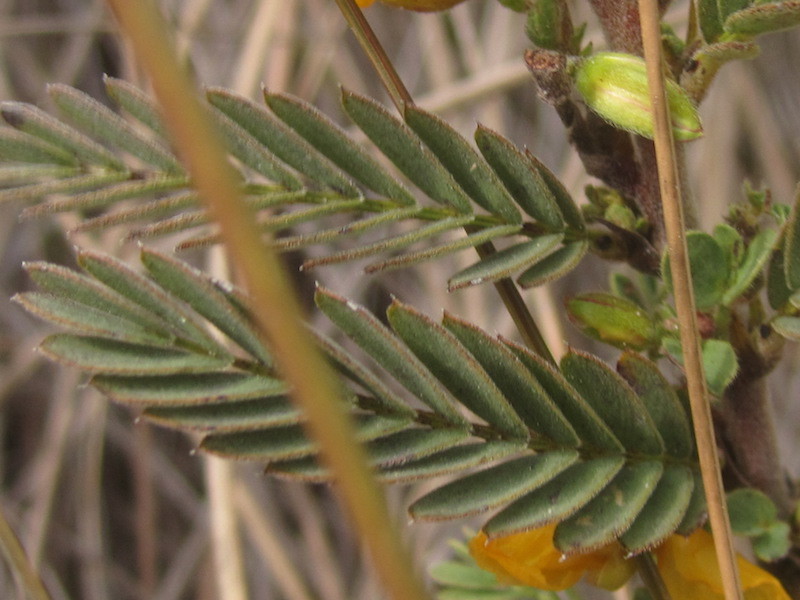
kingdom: Plantae
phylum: Tracheophyta
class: Magnoliopsida
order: Fabales
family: Fabaceae
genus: Chamaecrista
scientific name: Chamaecrista fasciculata
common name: Golden cassia
